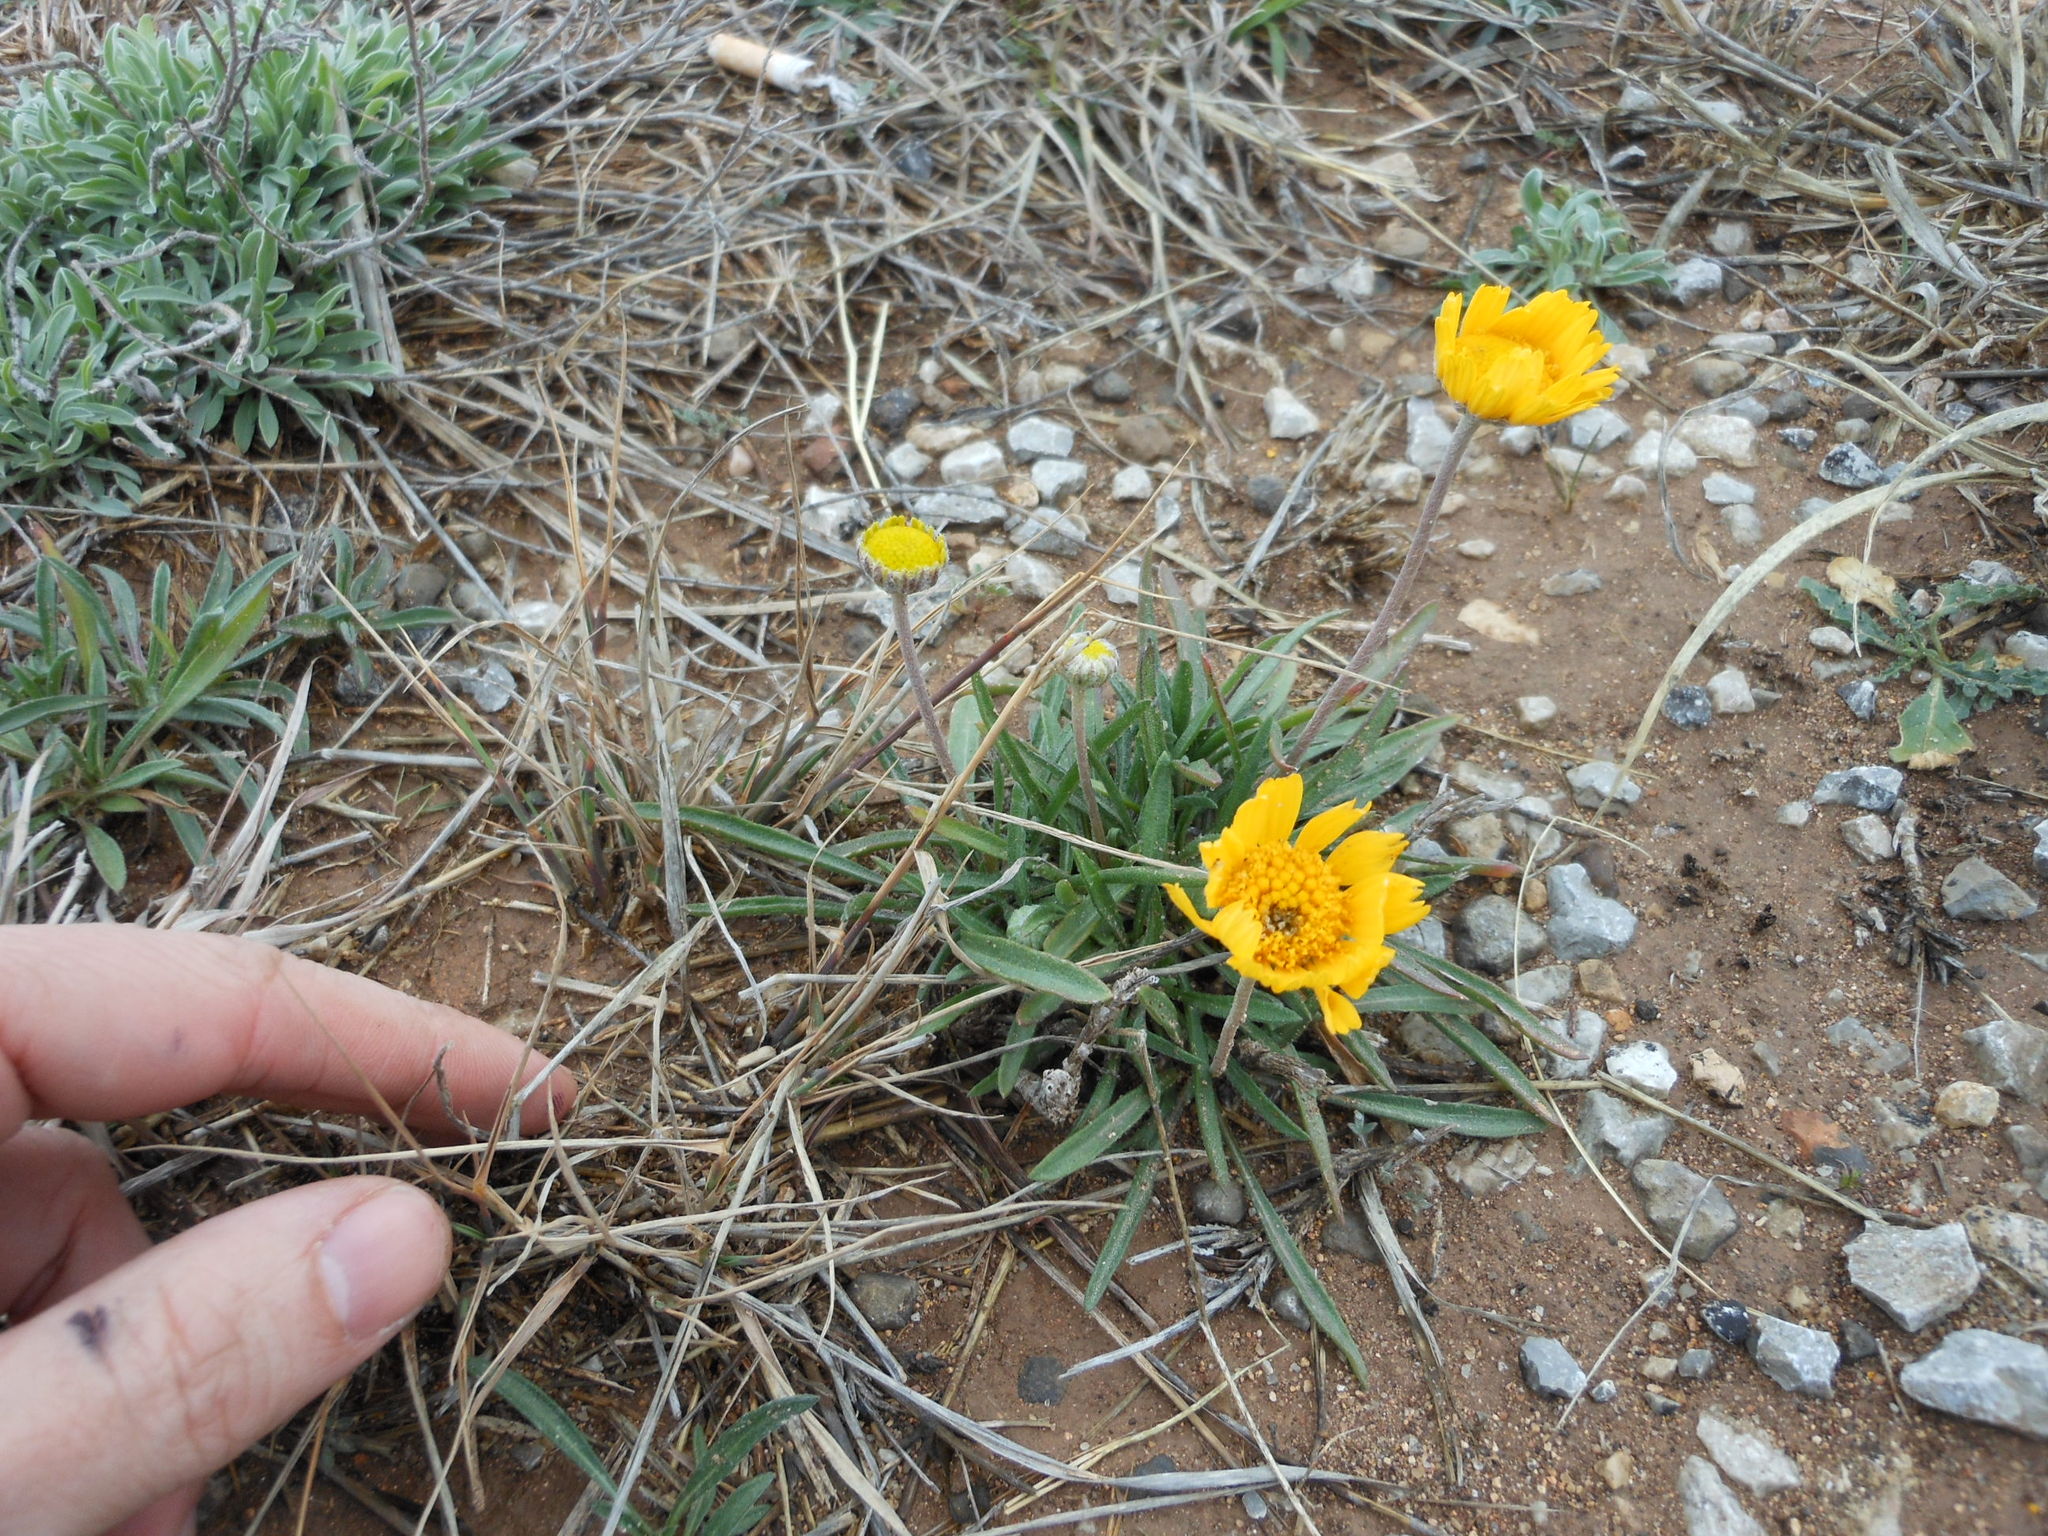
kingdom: Plantae
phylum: Tracheophyta
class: Magnoliopsida
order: Asterales
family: Asteraceae
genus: Tetraneuris
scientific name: Tetraneuris scaposa
